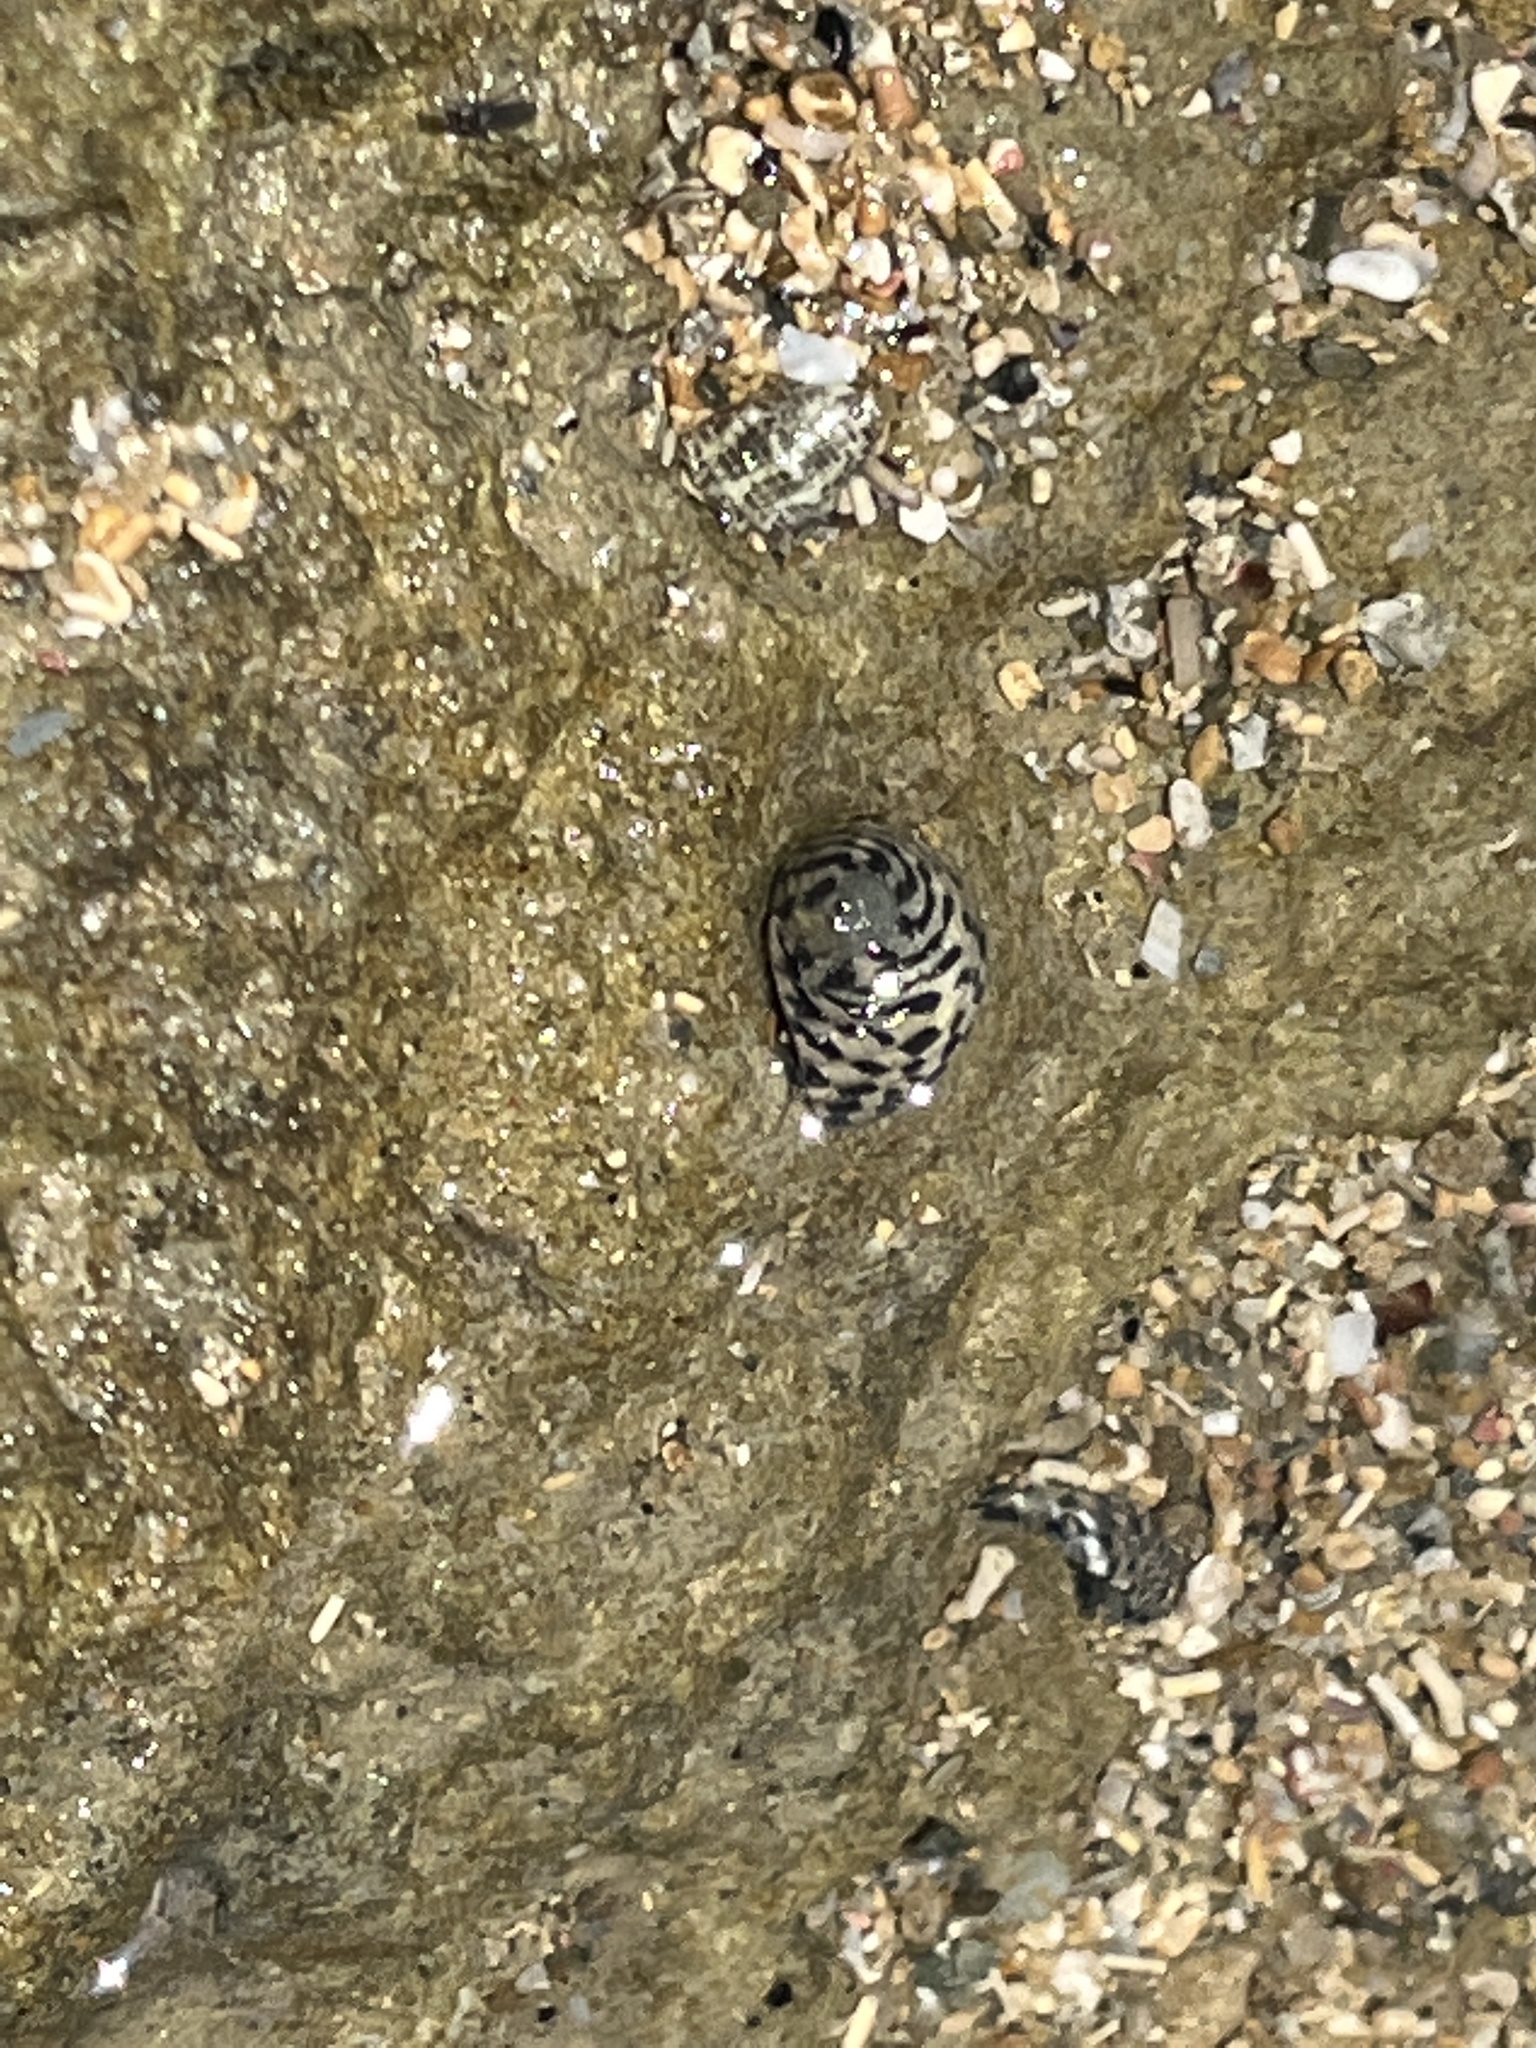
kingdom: Animalia
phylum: Mollusca
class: Gastropoda
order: Cycloneritida
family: Neritidae
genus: Nerita
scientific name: Nerita tessellata
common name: Checkered nerite
